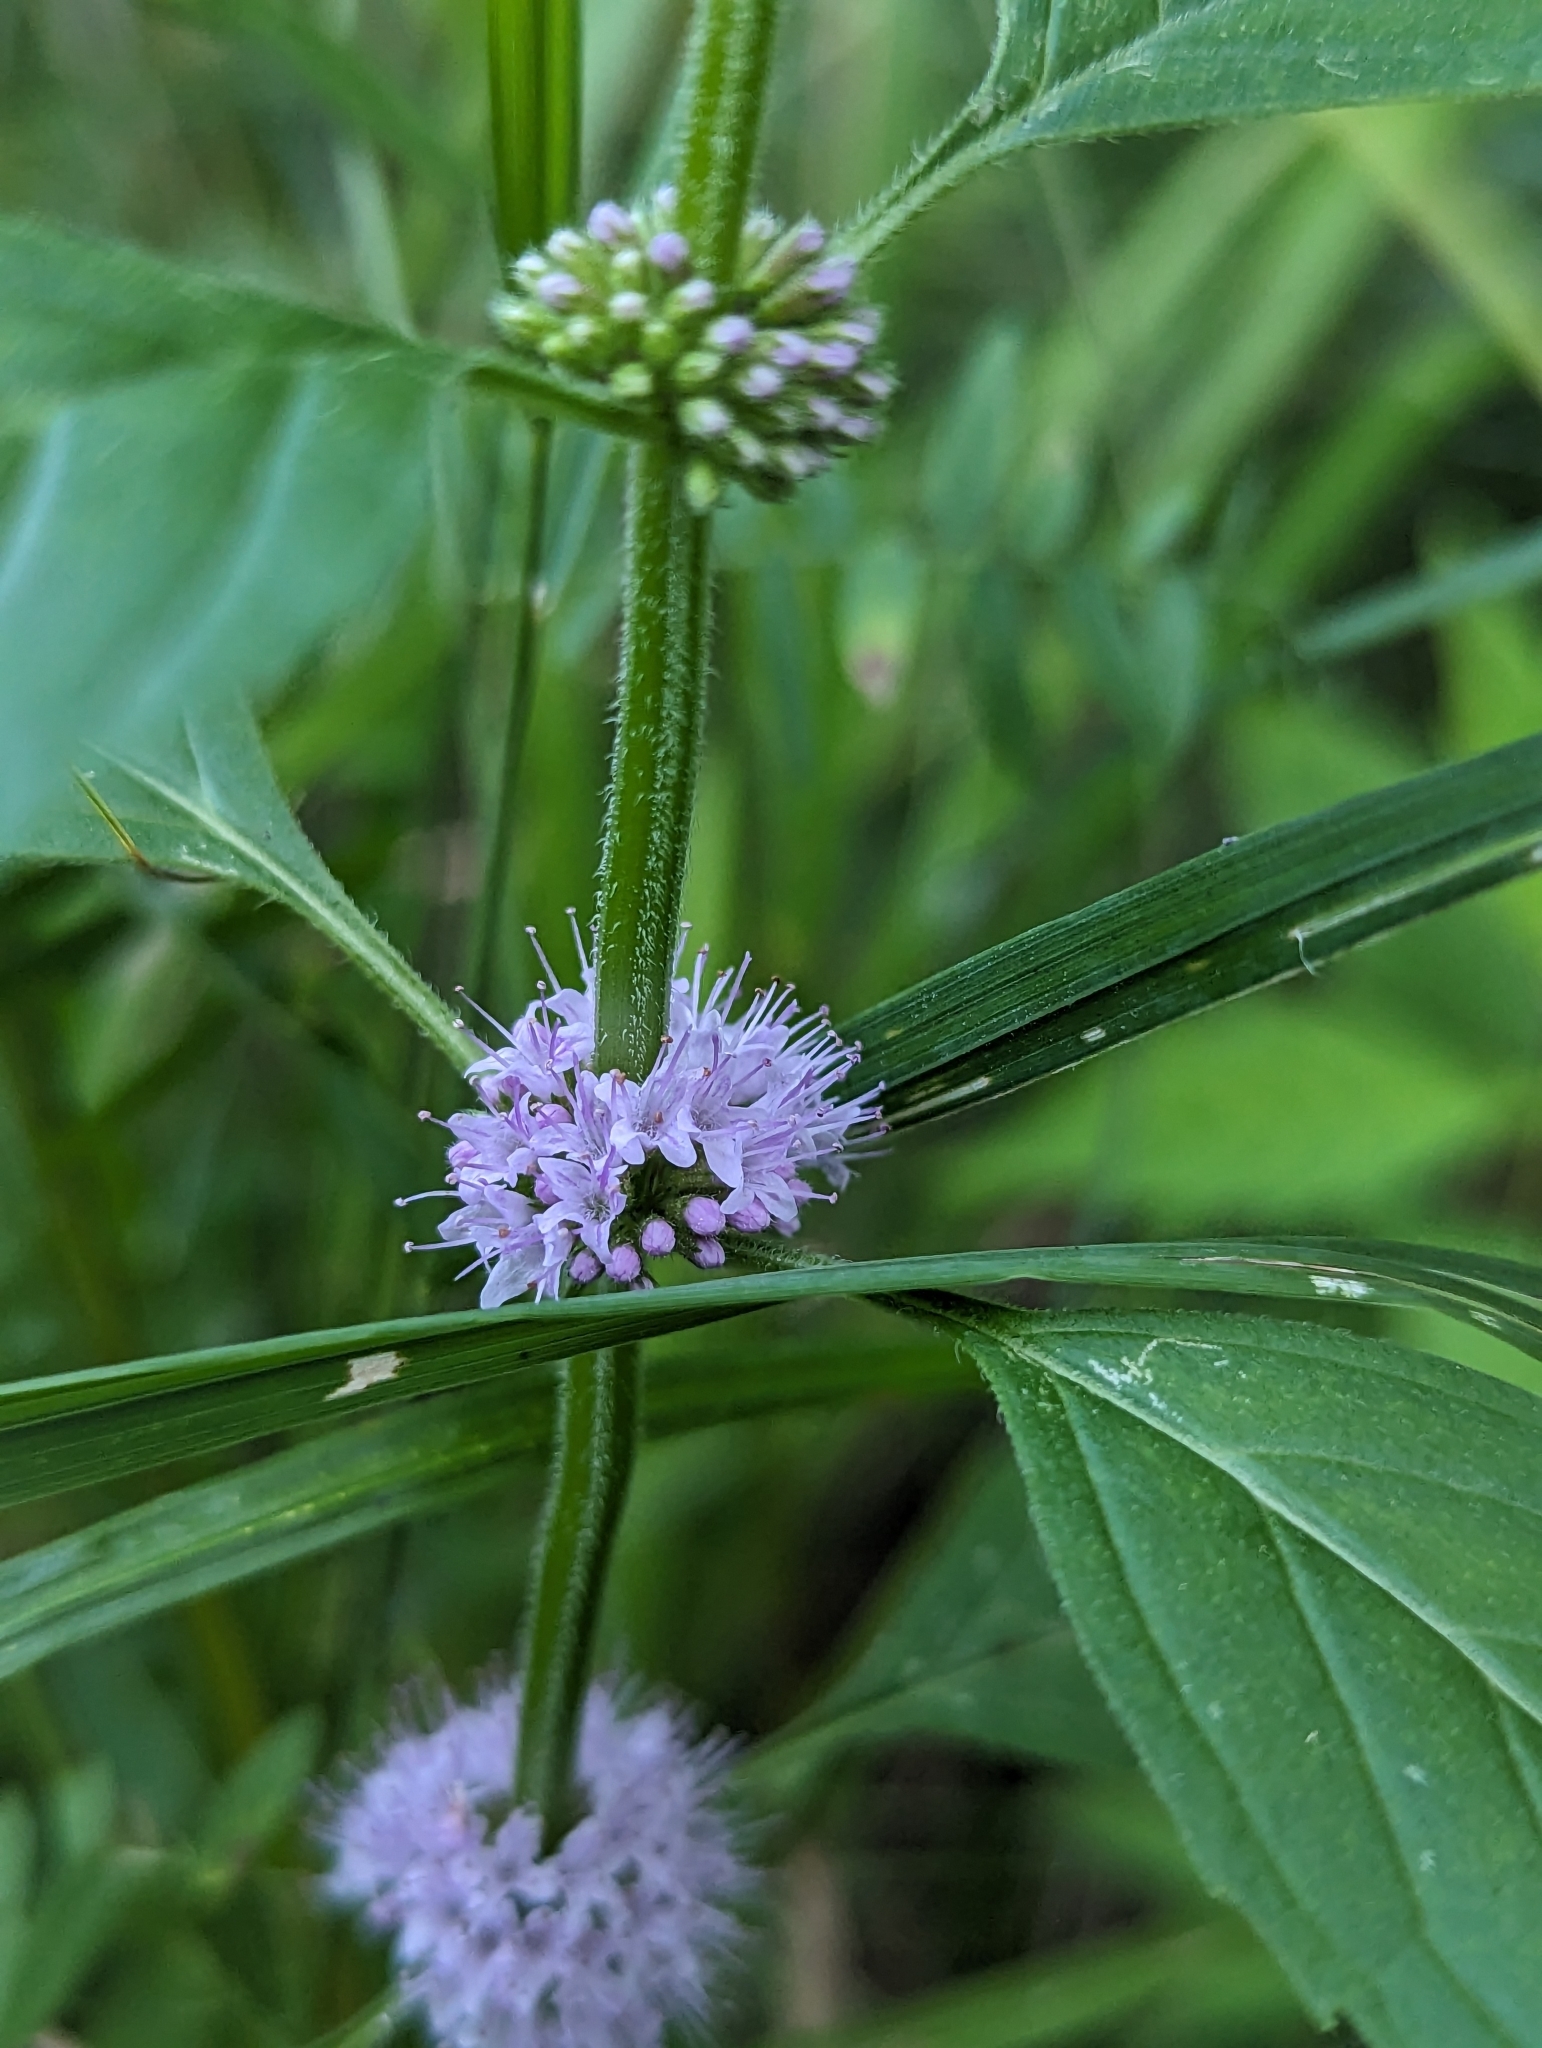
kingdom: Plantae
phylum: Tracheophyta
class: Magnoliopsida
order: Lamiales
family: Lamiaceae
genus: Mentha
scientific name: Mentha canadensis
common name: American corn mint
